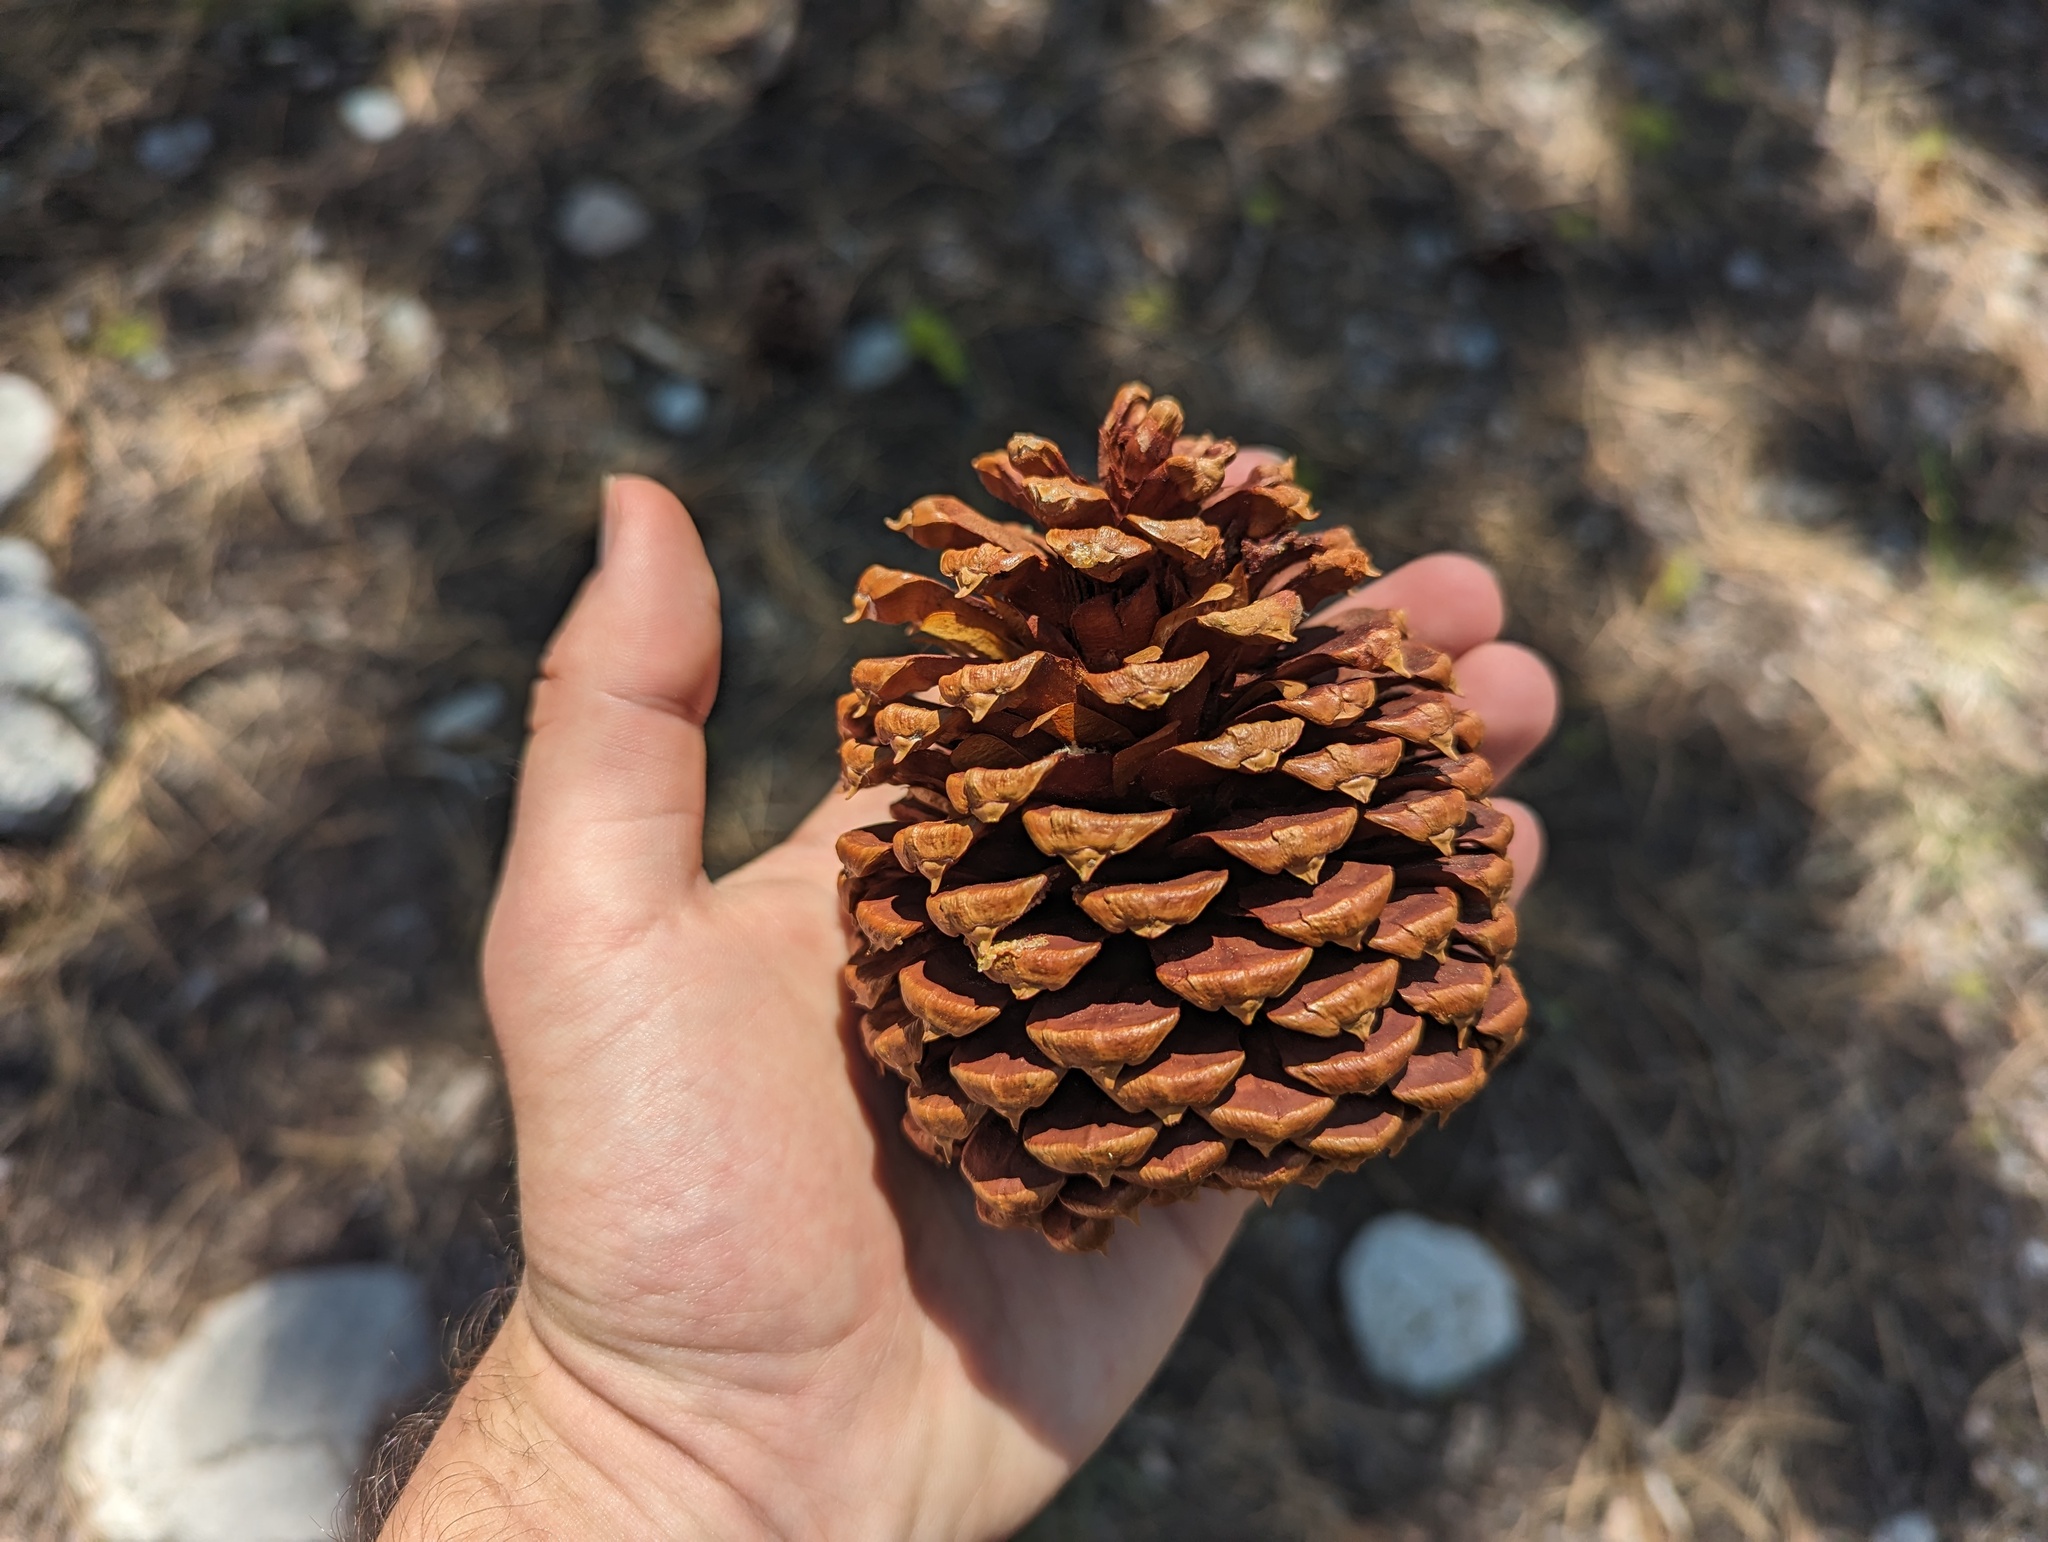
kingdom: Plantae
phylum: Tracheophyta
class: Pinopsida
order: Pinales
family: Pinaceae
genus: Pinus
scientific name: Pinus jeffreyi
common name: Jeffrey pine
